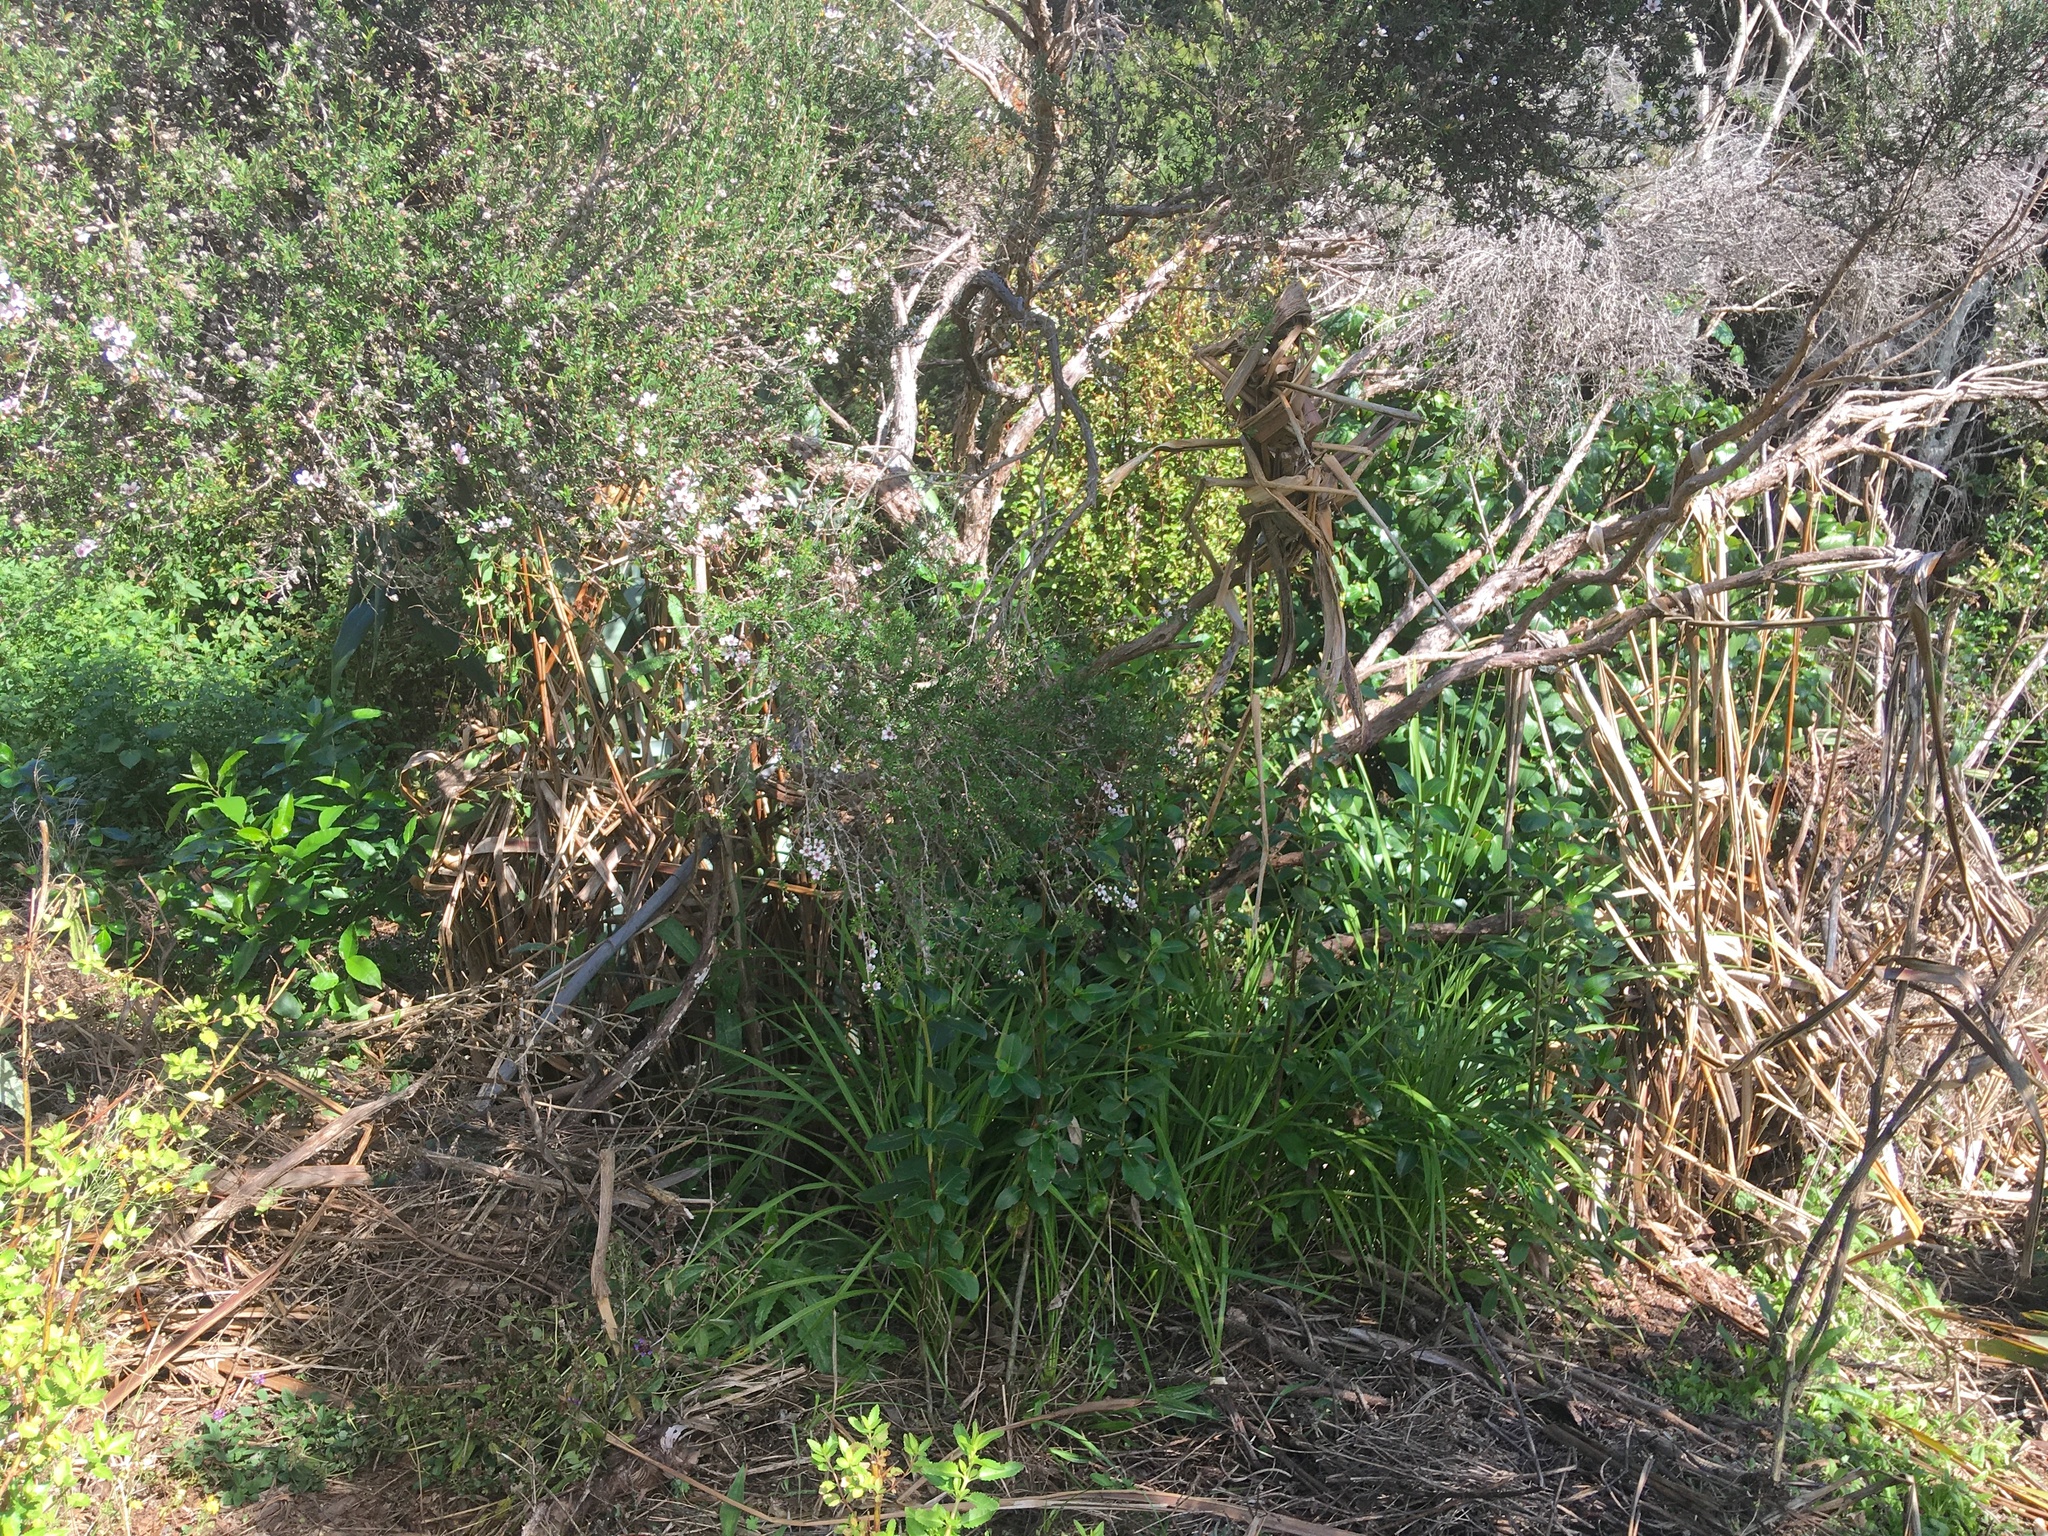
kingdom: Plantae
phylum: Tracheophyta
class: Magnoliopsida
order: Ericales
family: Primulaceae
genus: Myrsine
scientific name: Myrsine australis
